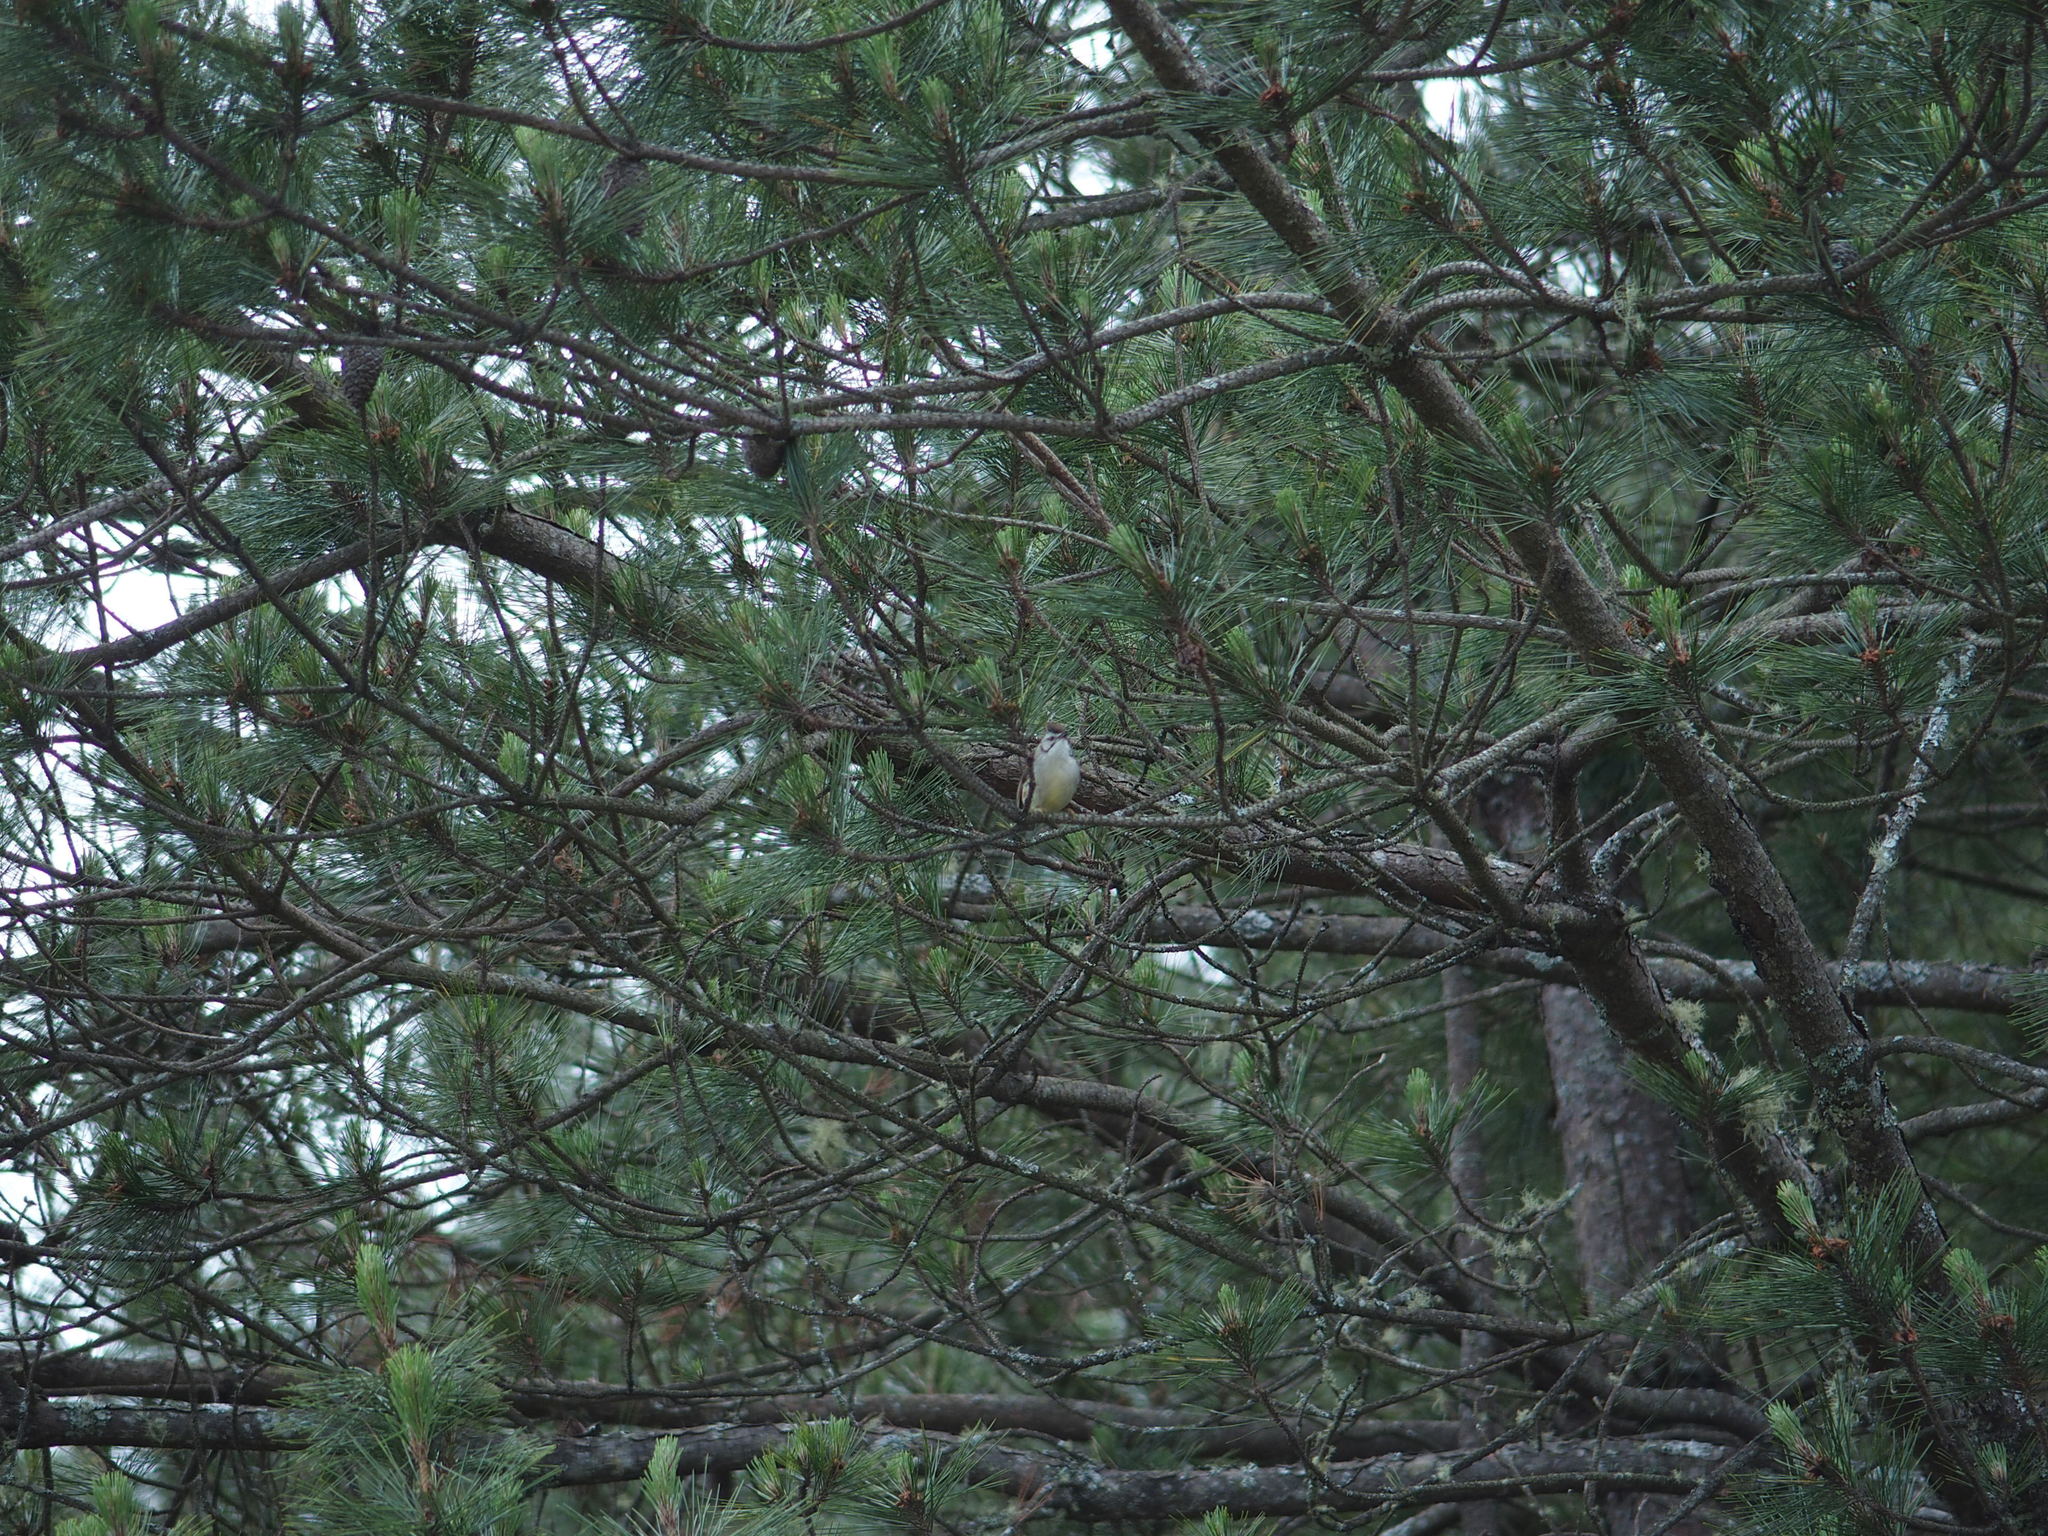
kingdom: Animalia
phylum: Chordata
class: Aves
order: Passeriformes
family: Zosteropidae
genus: Yuhina
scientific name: Yuhina brunneiceps
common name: Taiwan yuhina
